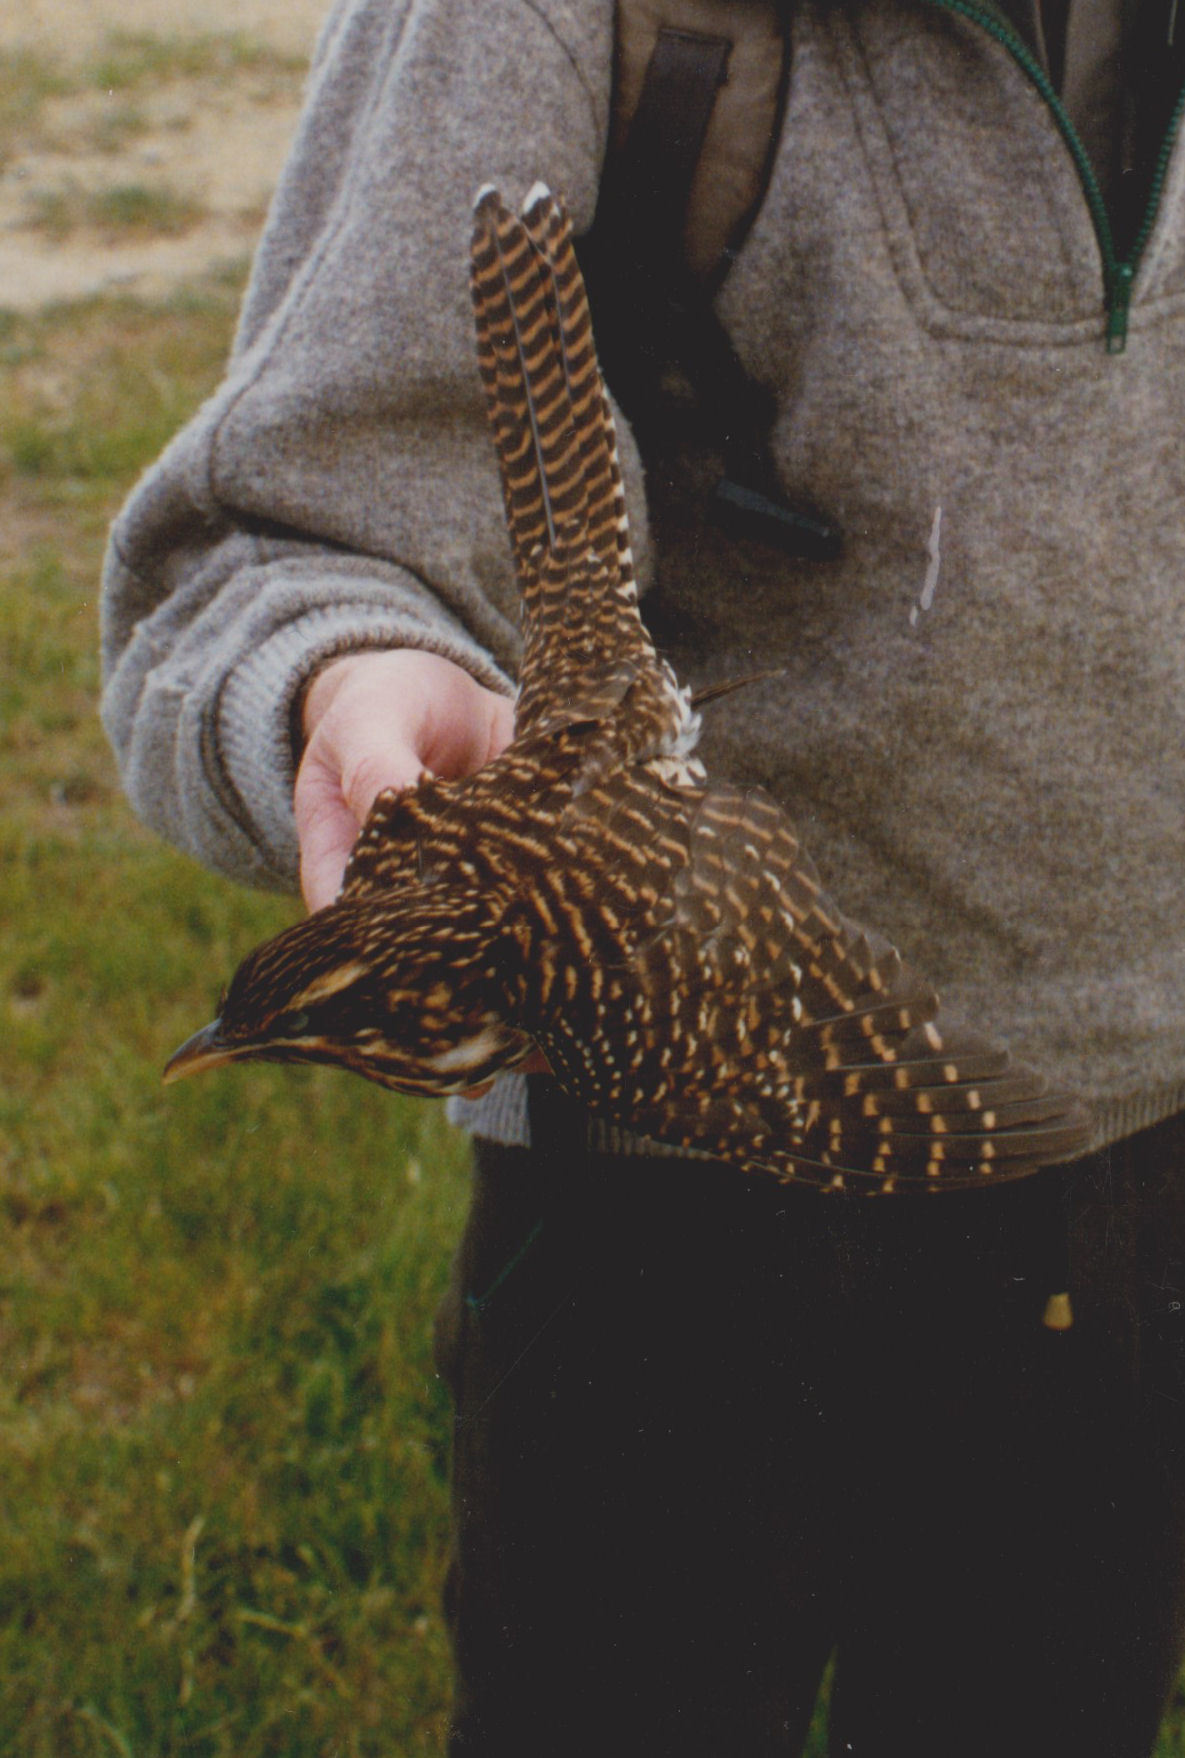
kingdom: Animalia
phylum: Chordata
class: Aves
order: Cuculiformes
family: Cuculidae
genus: Urodynamis
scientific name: Urodynamis taitensis
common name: Long-tailed koel
